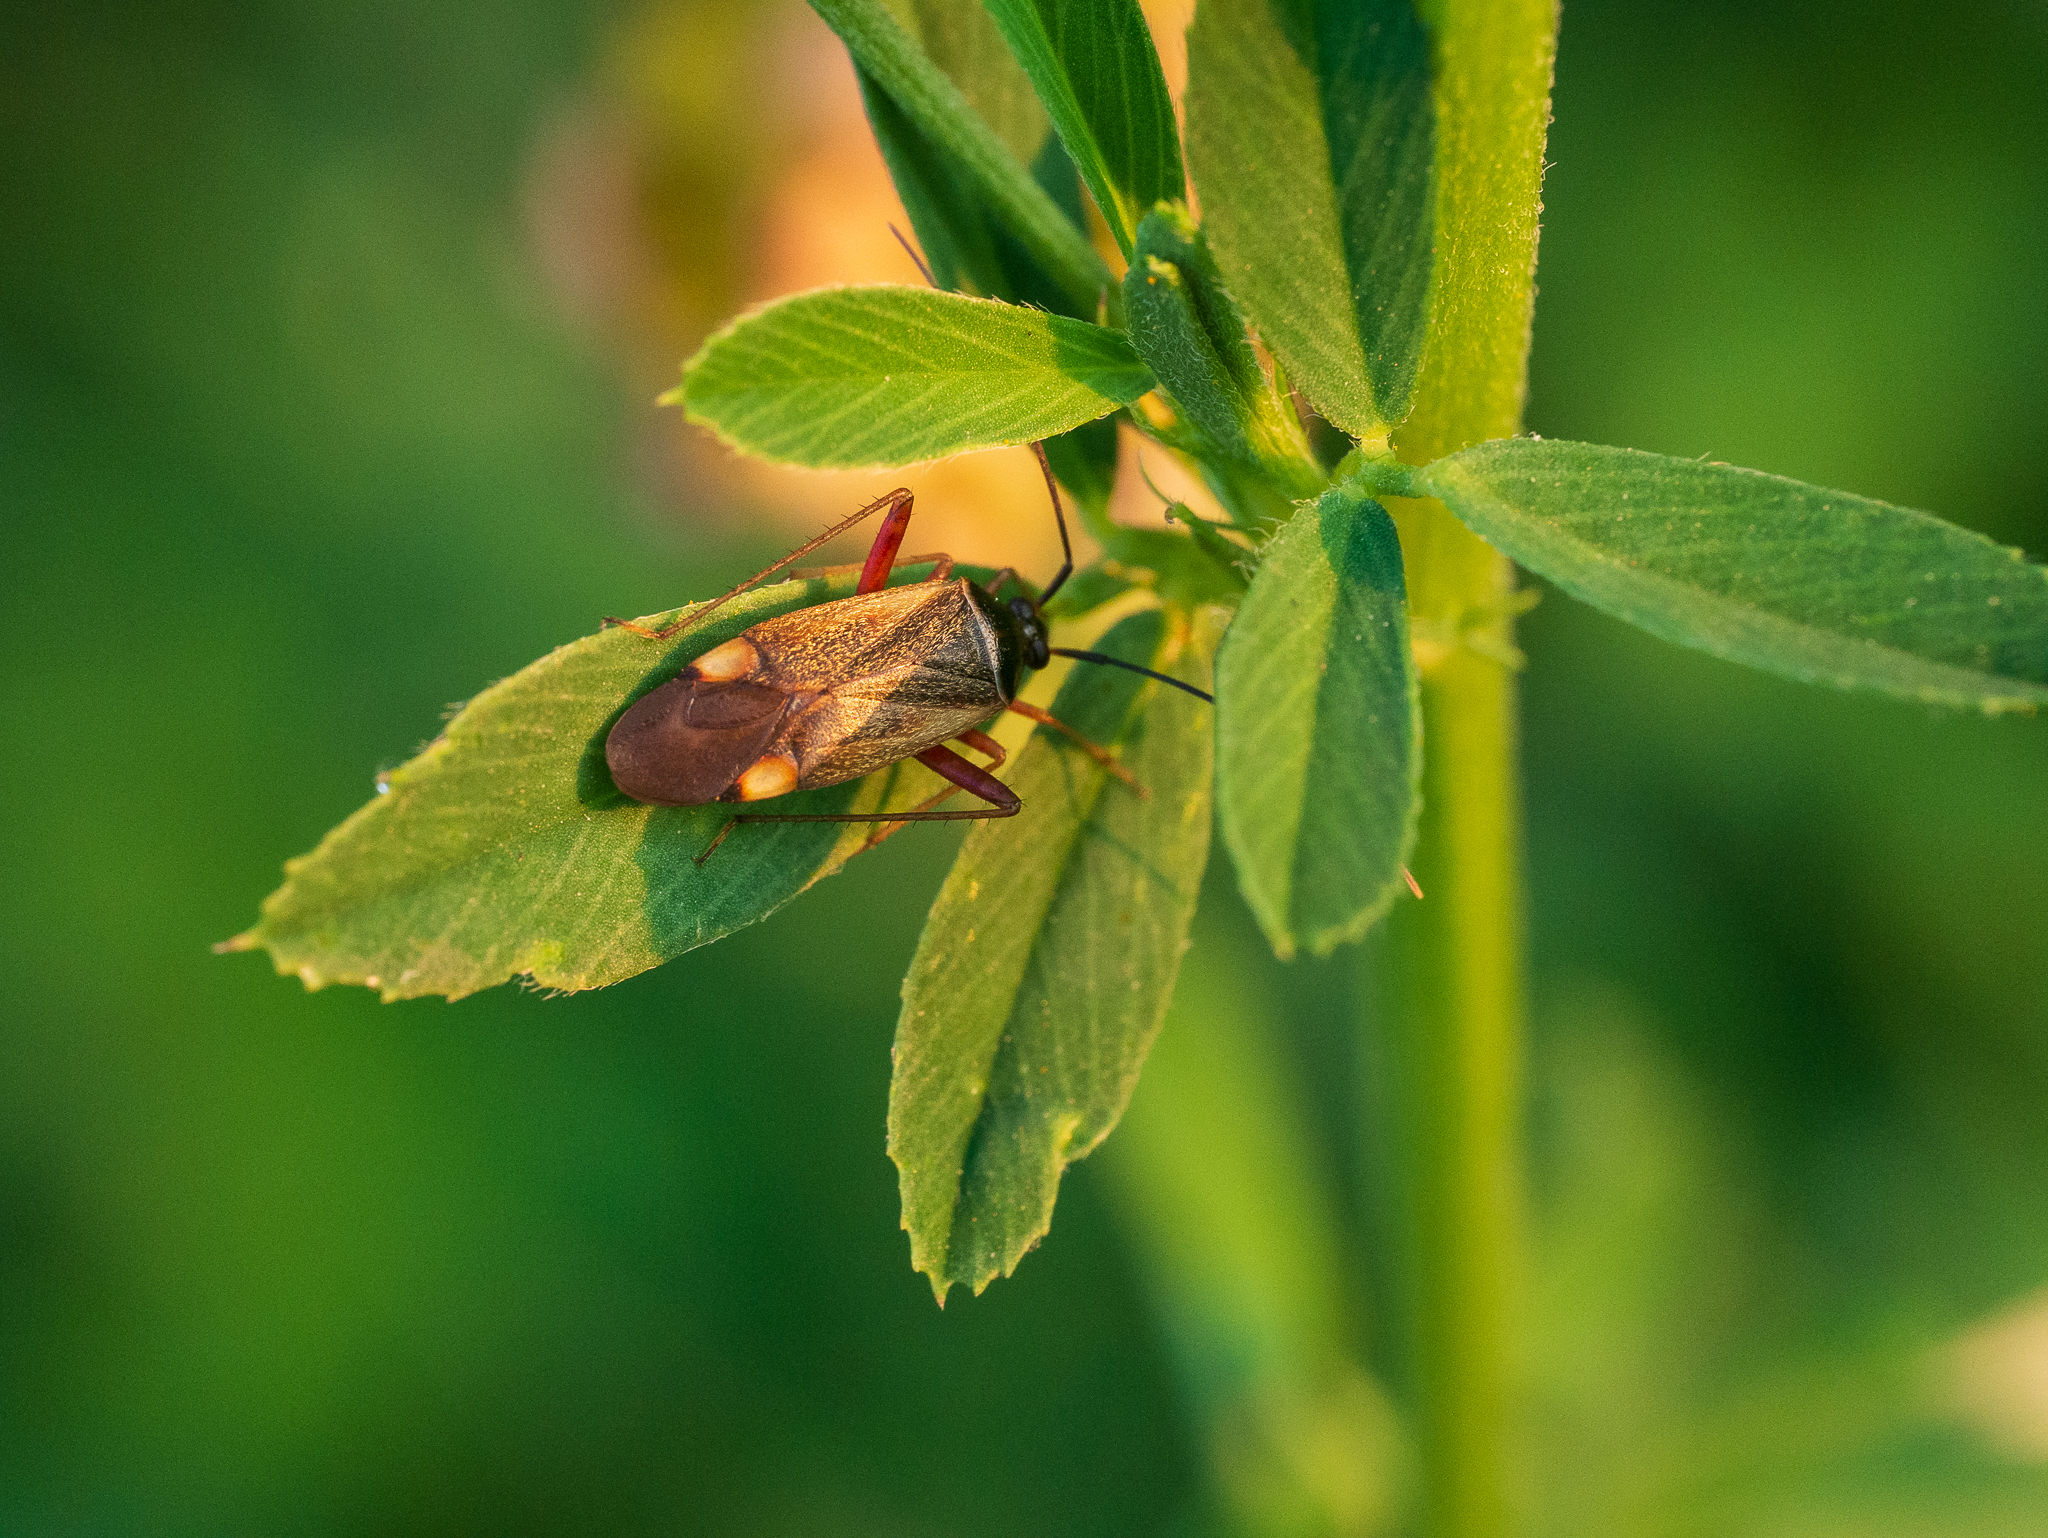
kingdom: Animalia
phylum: Arthropoda
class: Insecta
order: Hemiptera
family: Miridae
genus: Adelphocoris
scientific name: Adelphocoris seticornis
